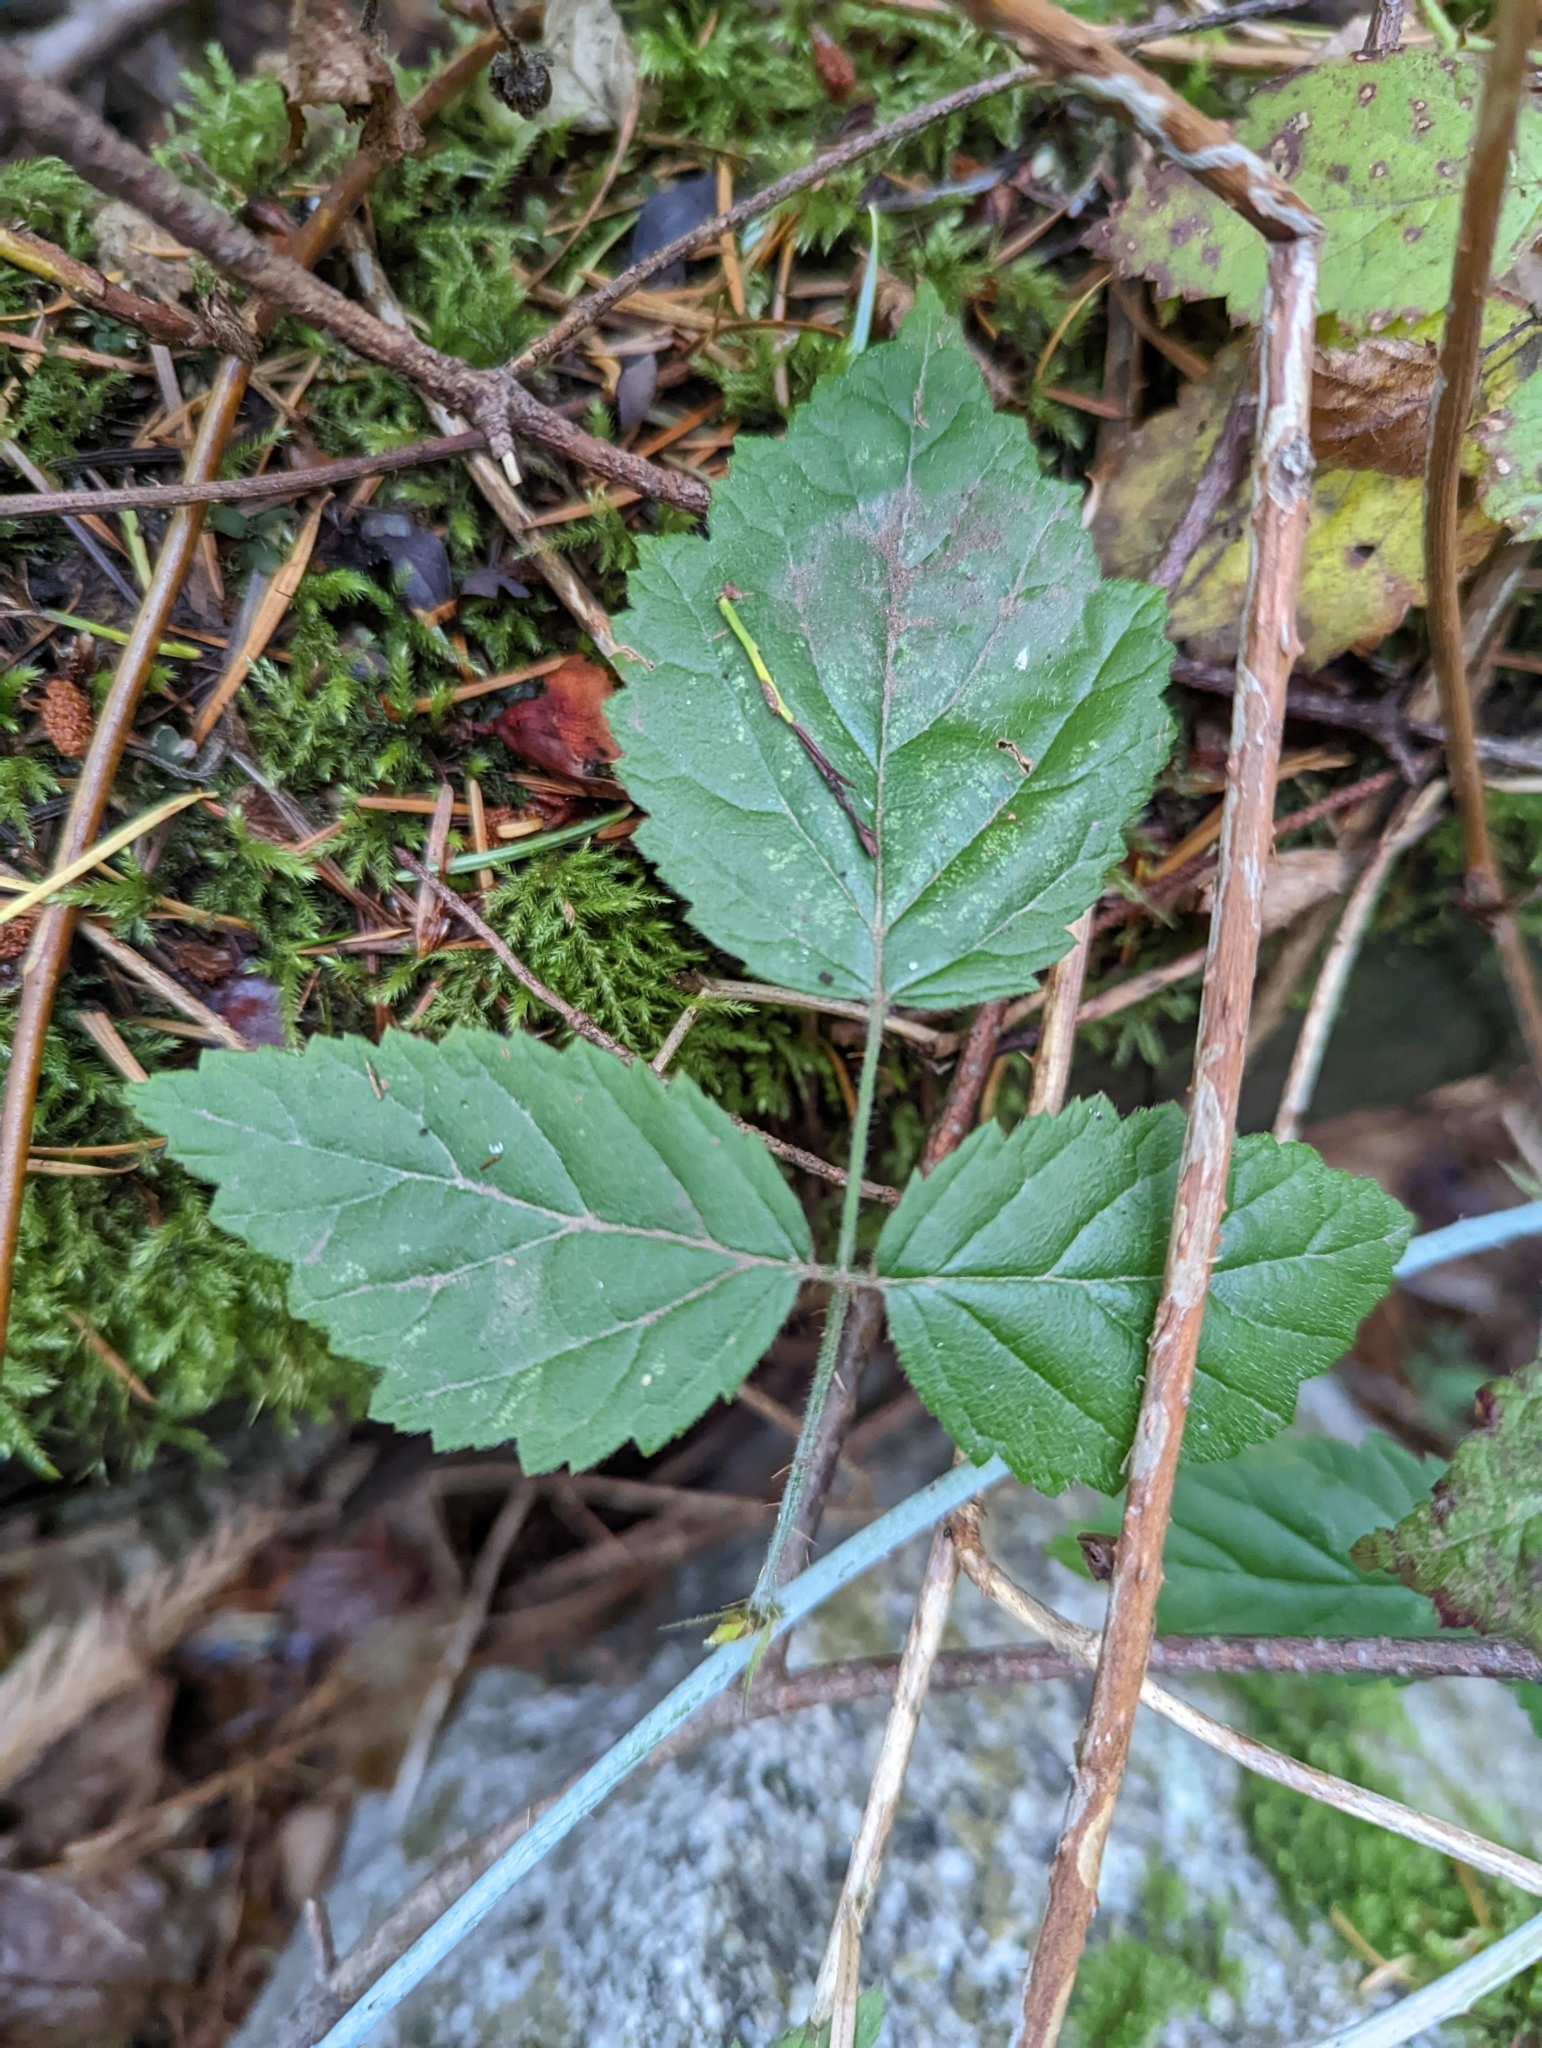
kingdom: Plantae
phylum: Tracheophyta
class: Magnoliopsida
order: Rosales
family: Rosaceae
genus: Rubus
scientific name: Rubus ursinus
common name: Pacific blackberry
